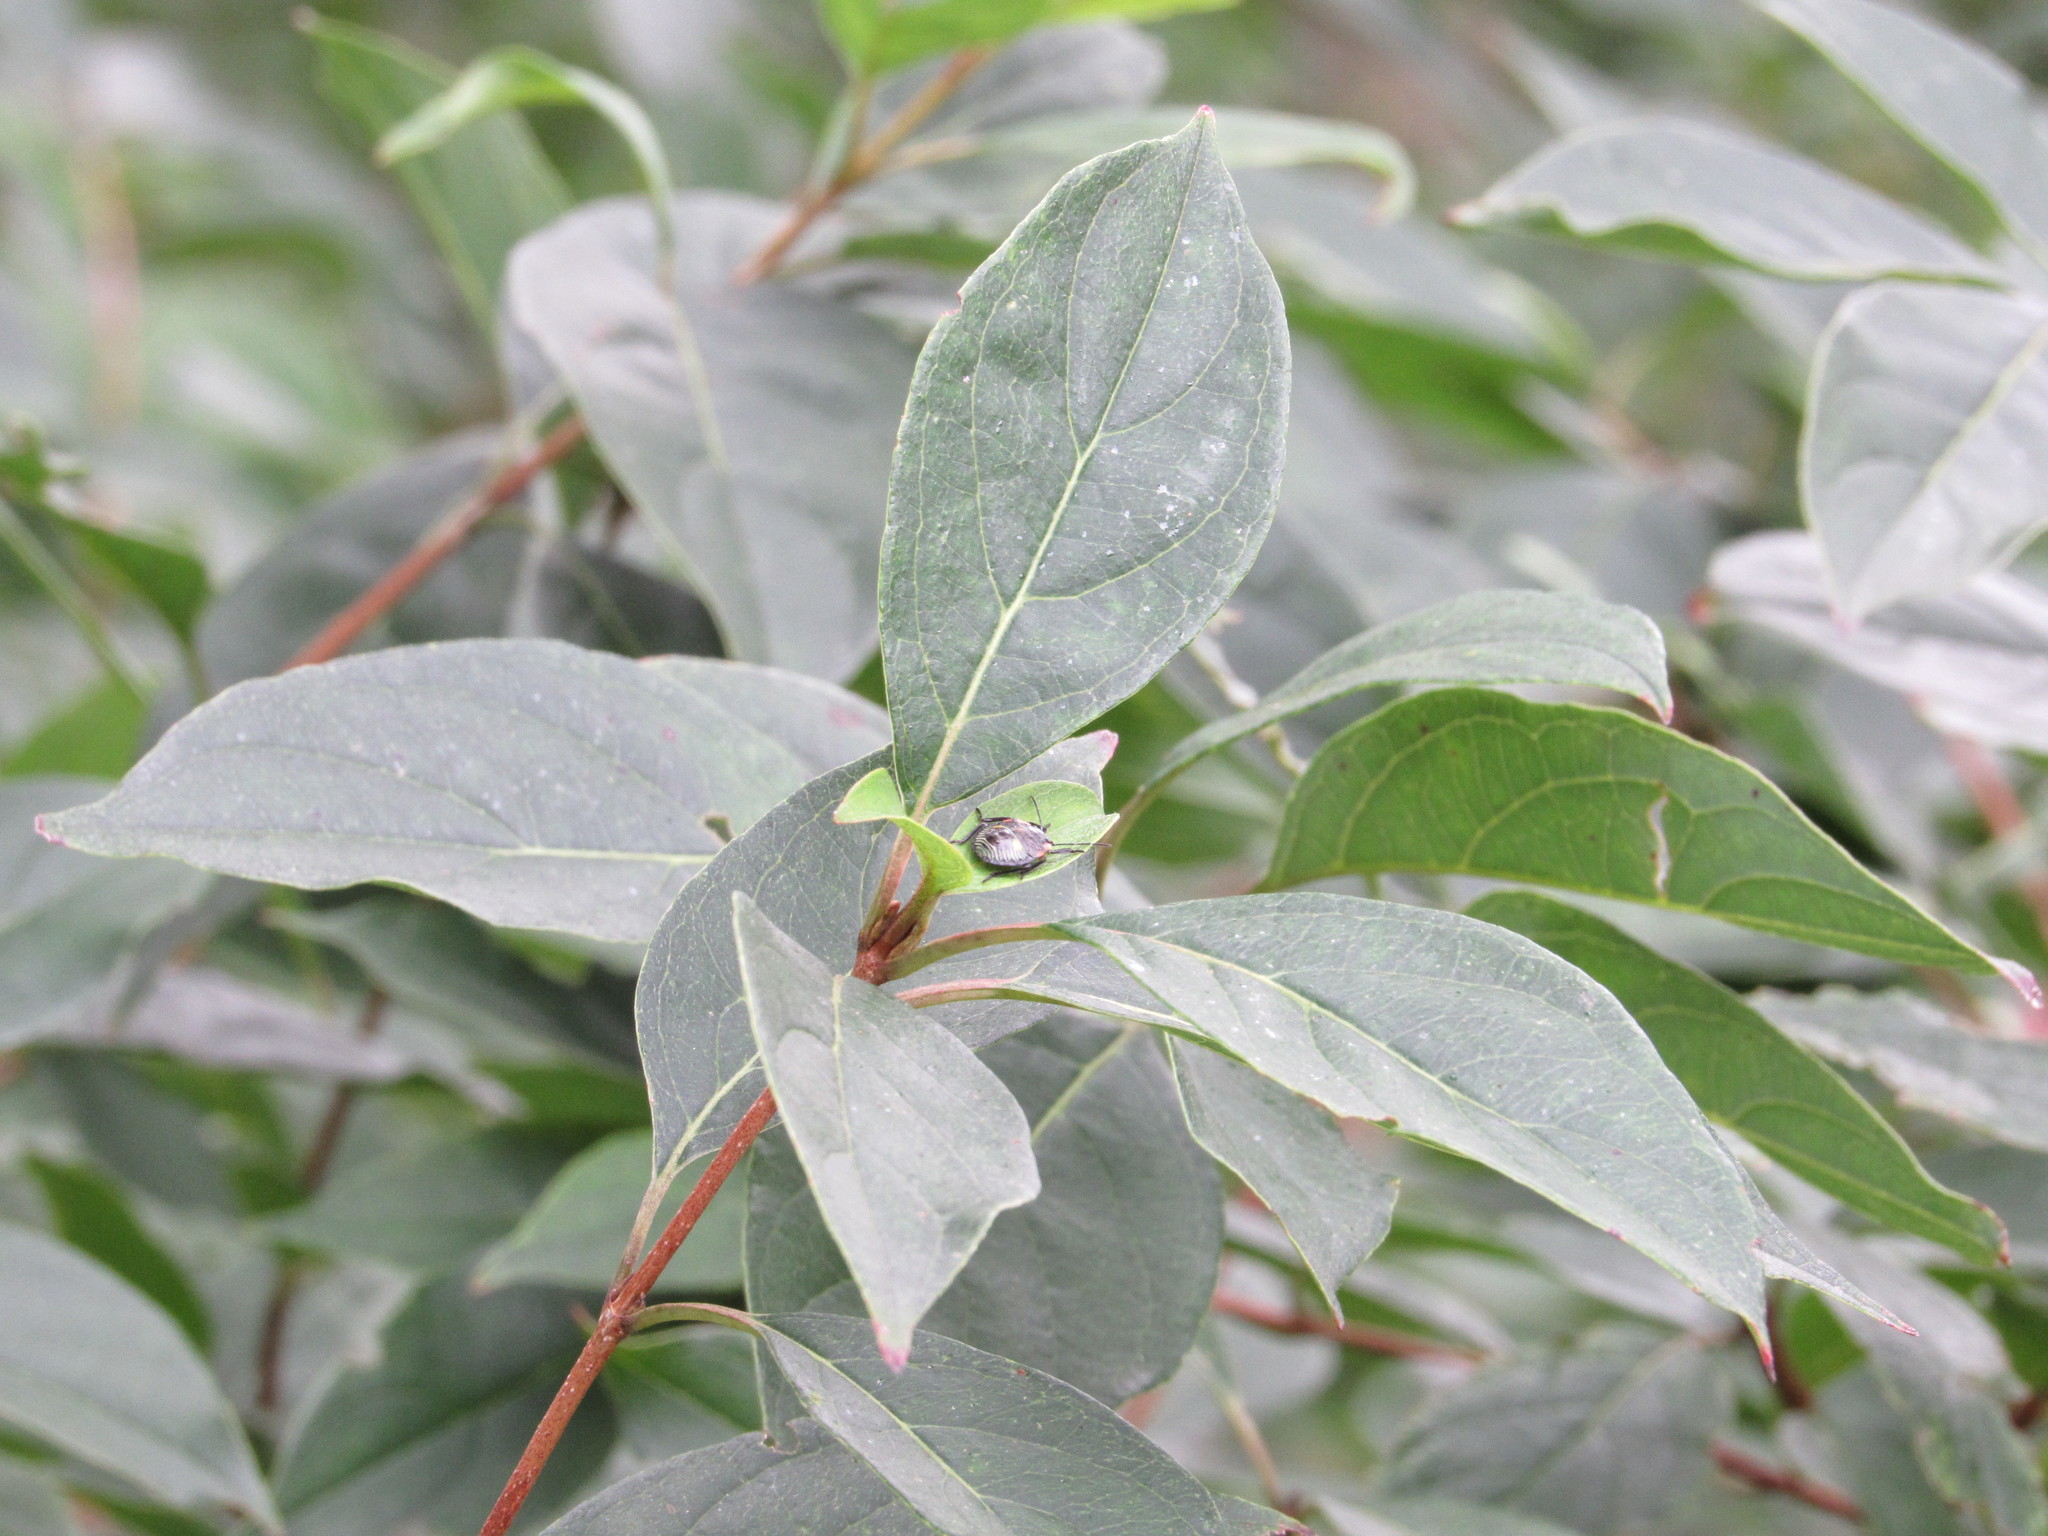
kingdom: Animalia
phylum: Arthropoda
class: Insecta
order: Hemiptera
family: Pentatomidae
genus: Chinavia
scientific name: Chinavia hilaris
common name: Green stink bug
